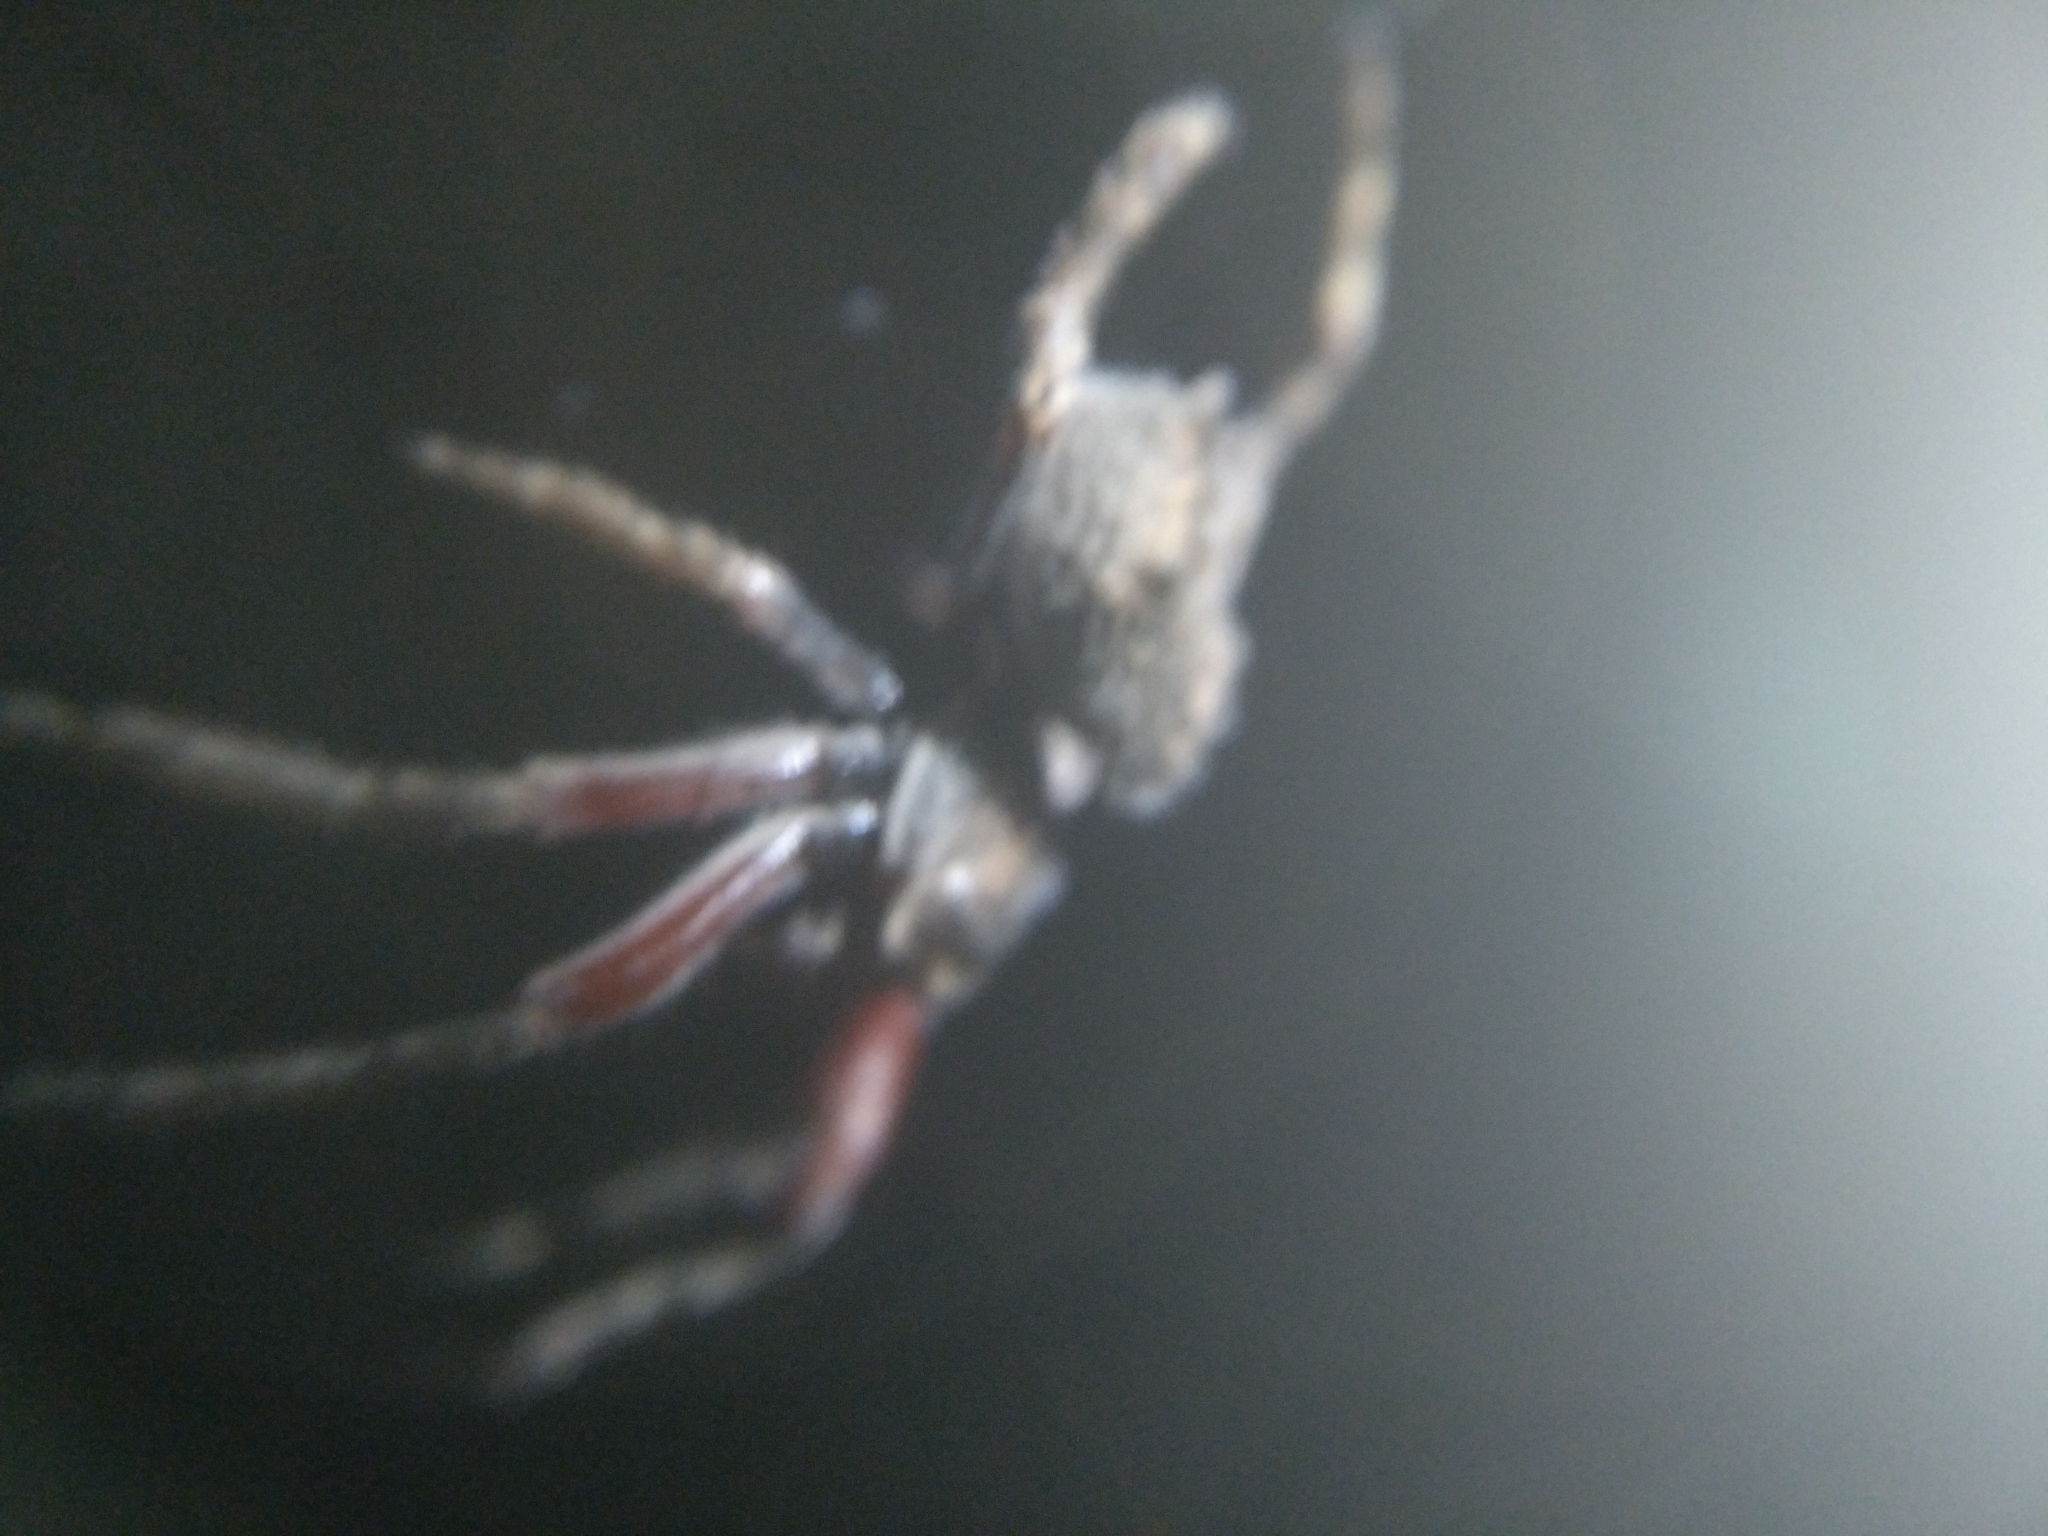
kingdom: Animalia
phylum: Arthropoda
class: Arachnida
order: Araneae
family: Araneidae
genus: Eriophora
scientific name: Eriophora pustulosa
